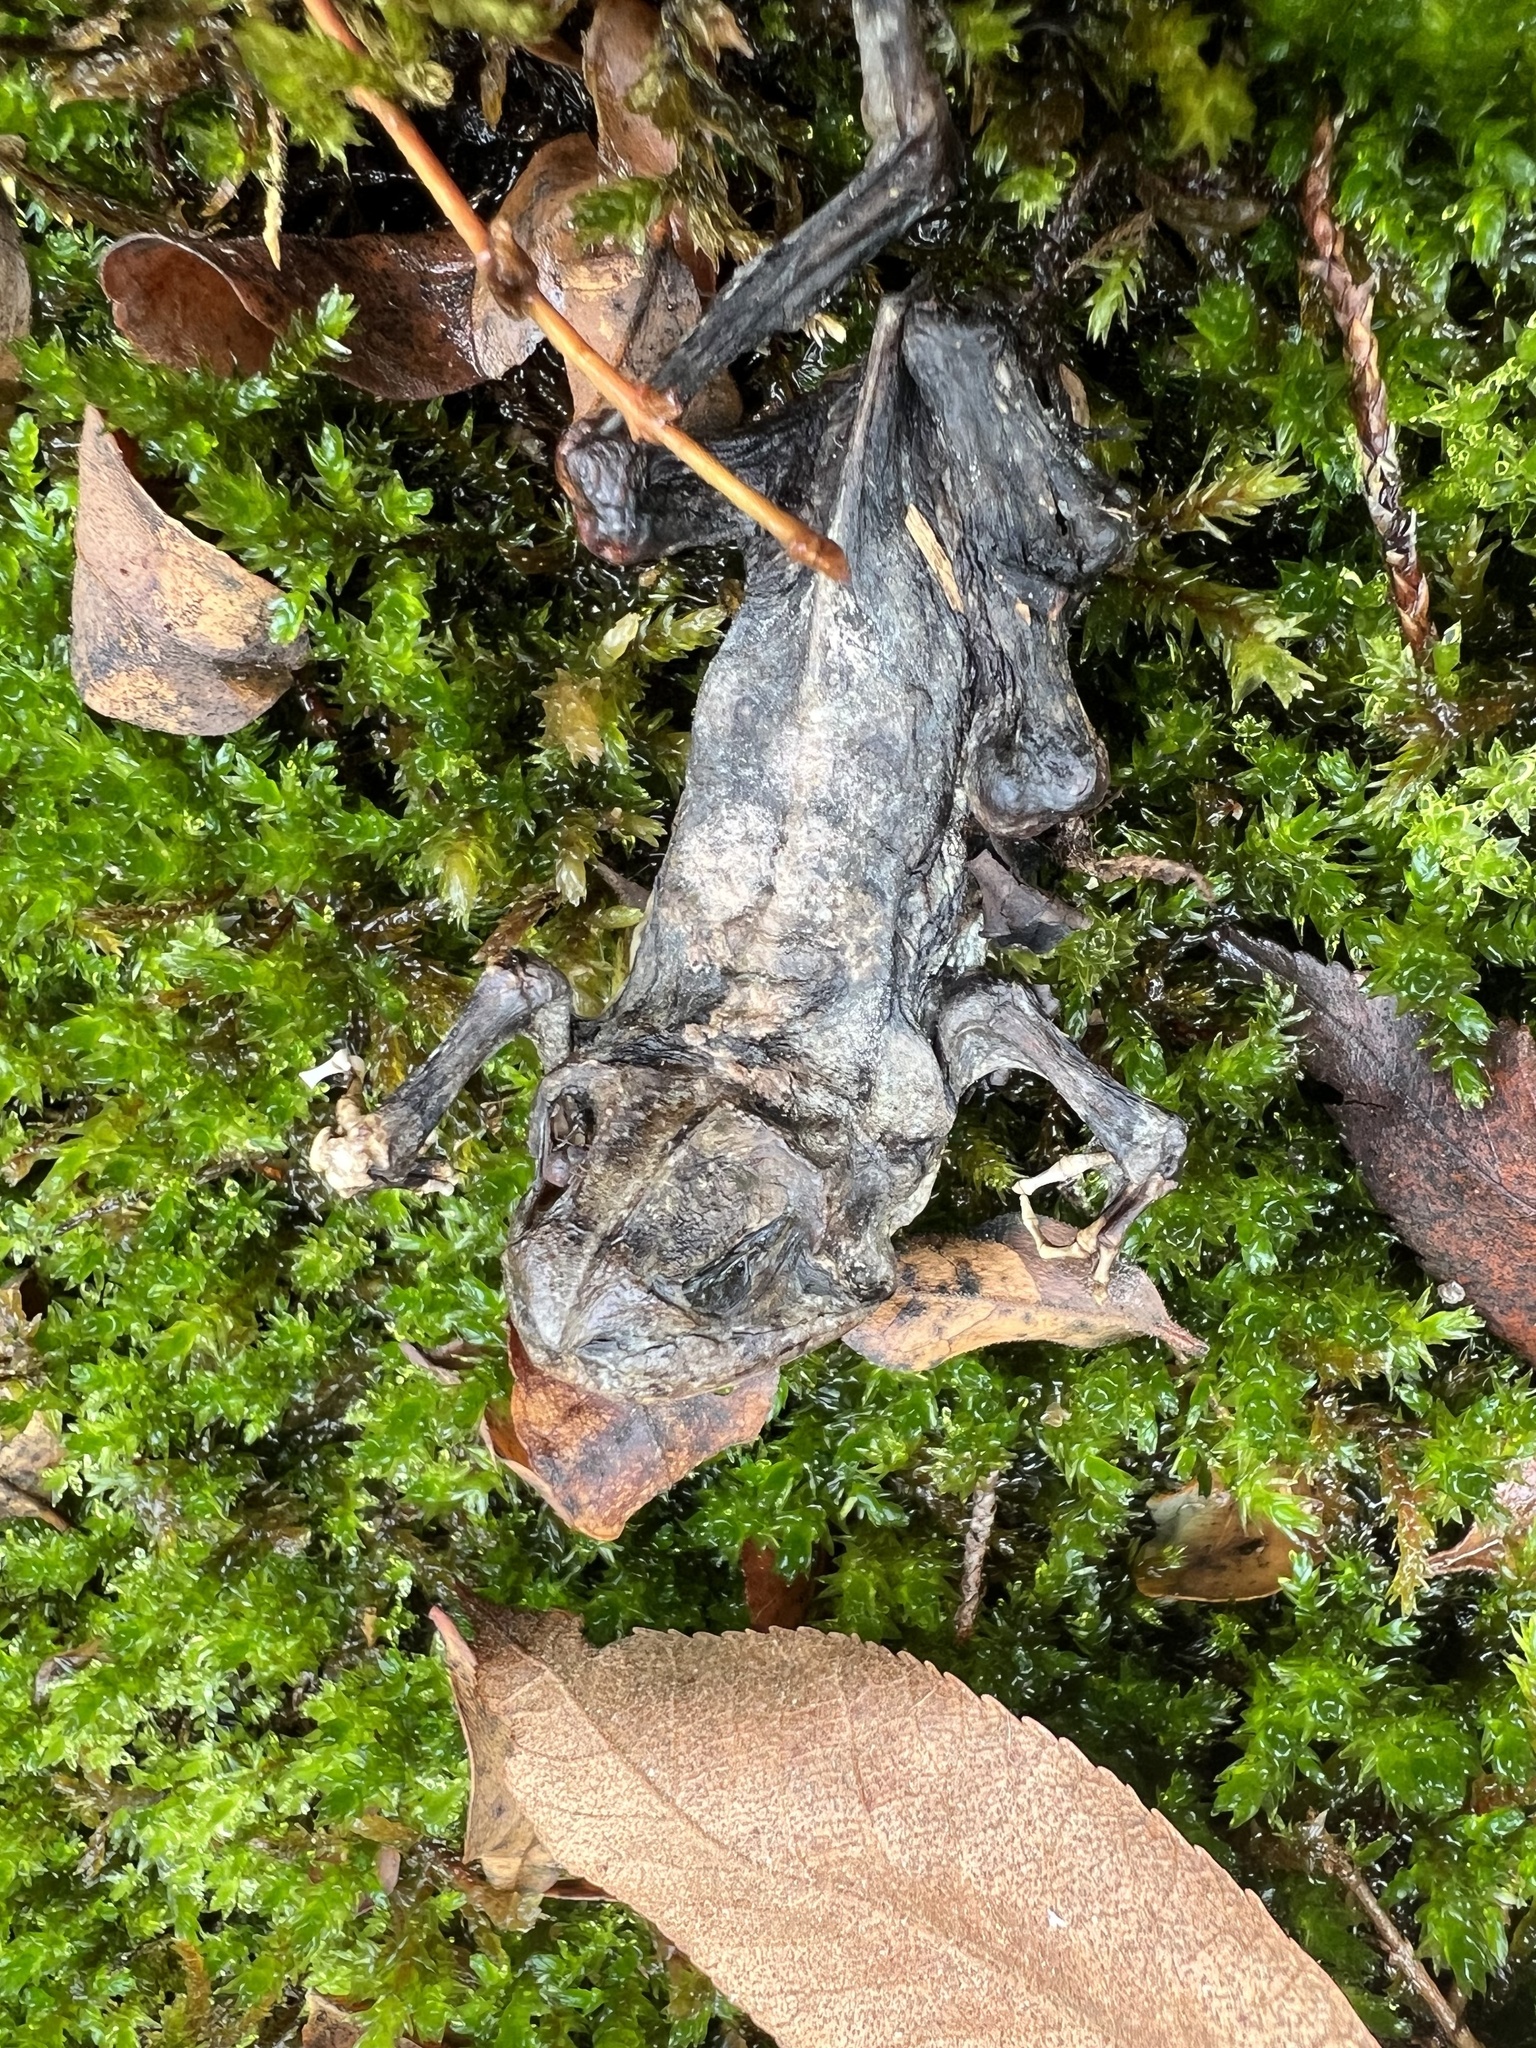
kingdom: Animalia
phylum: Chordata
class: Amphibia
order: Anura
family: Bufonidae
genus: Anaxyrus
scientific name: Anaxyrus fowleri
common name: Fowler's toad
